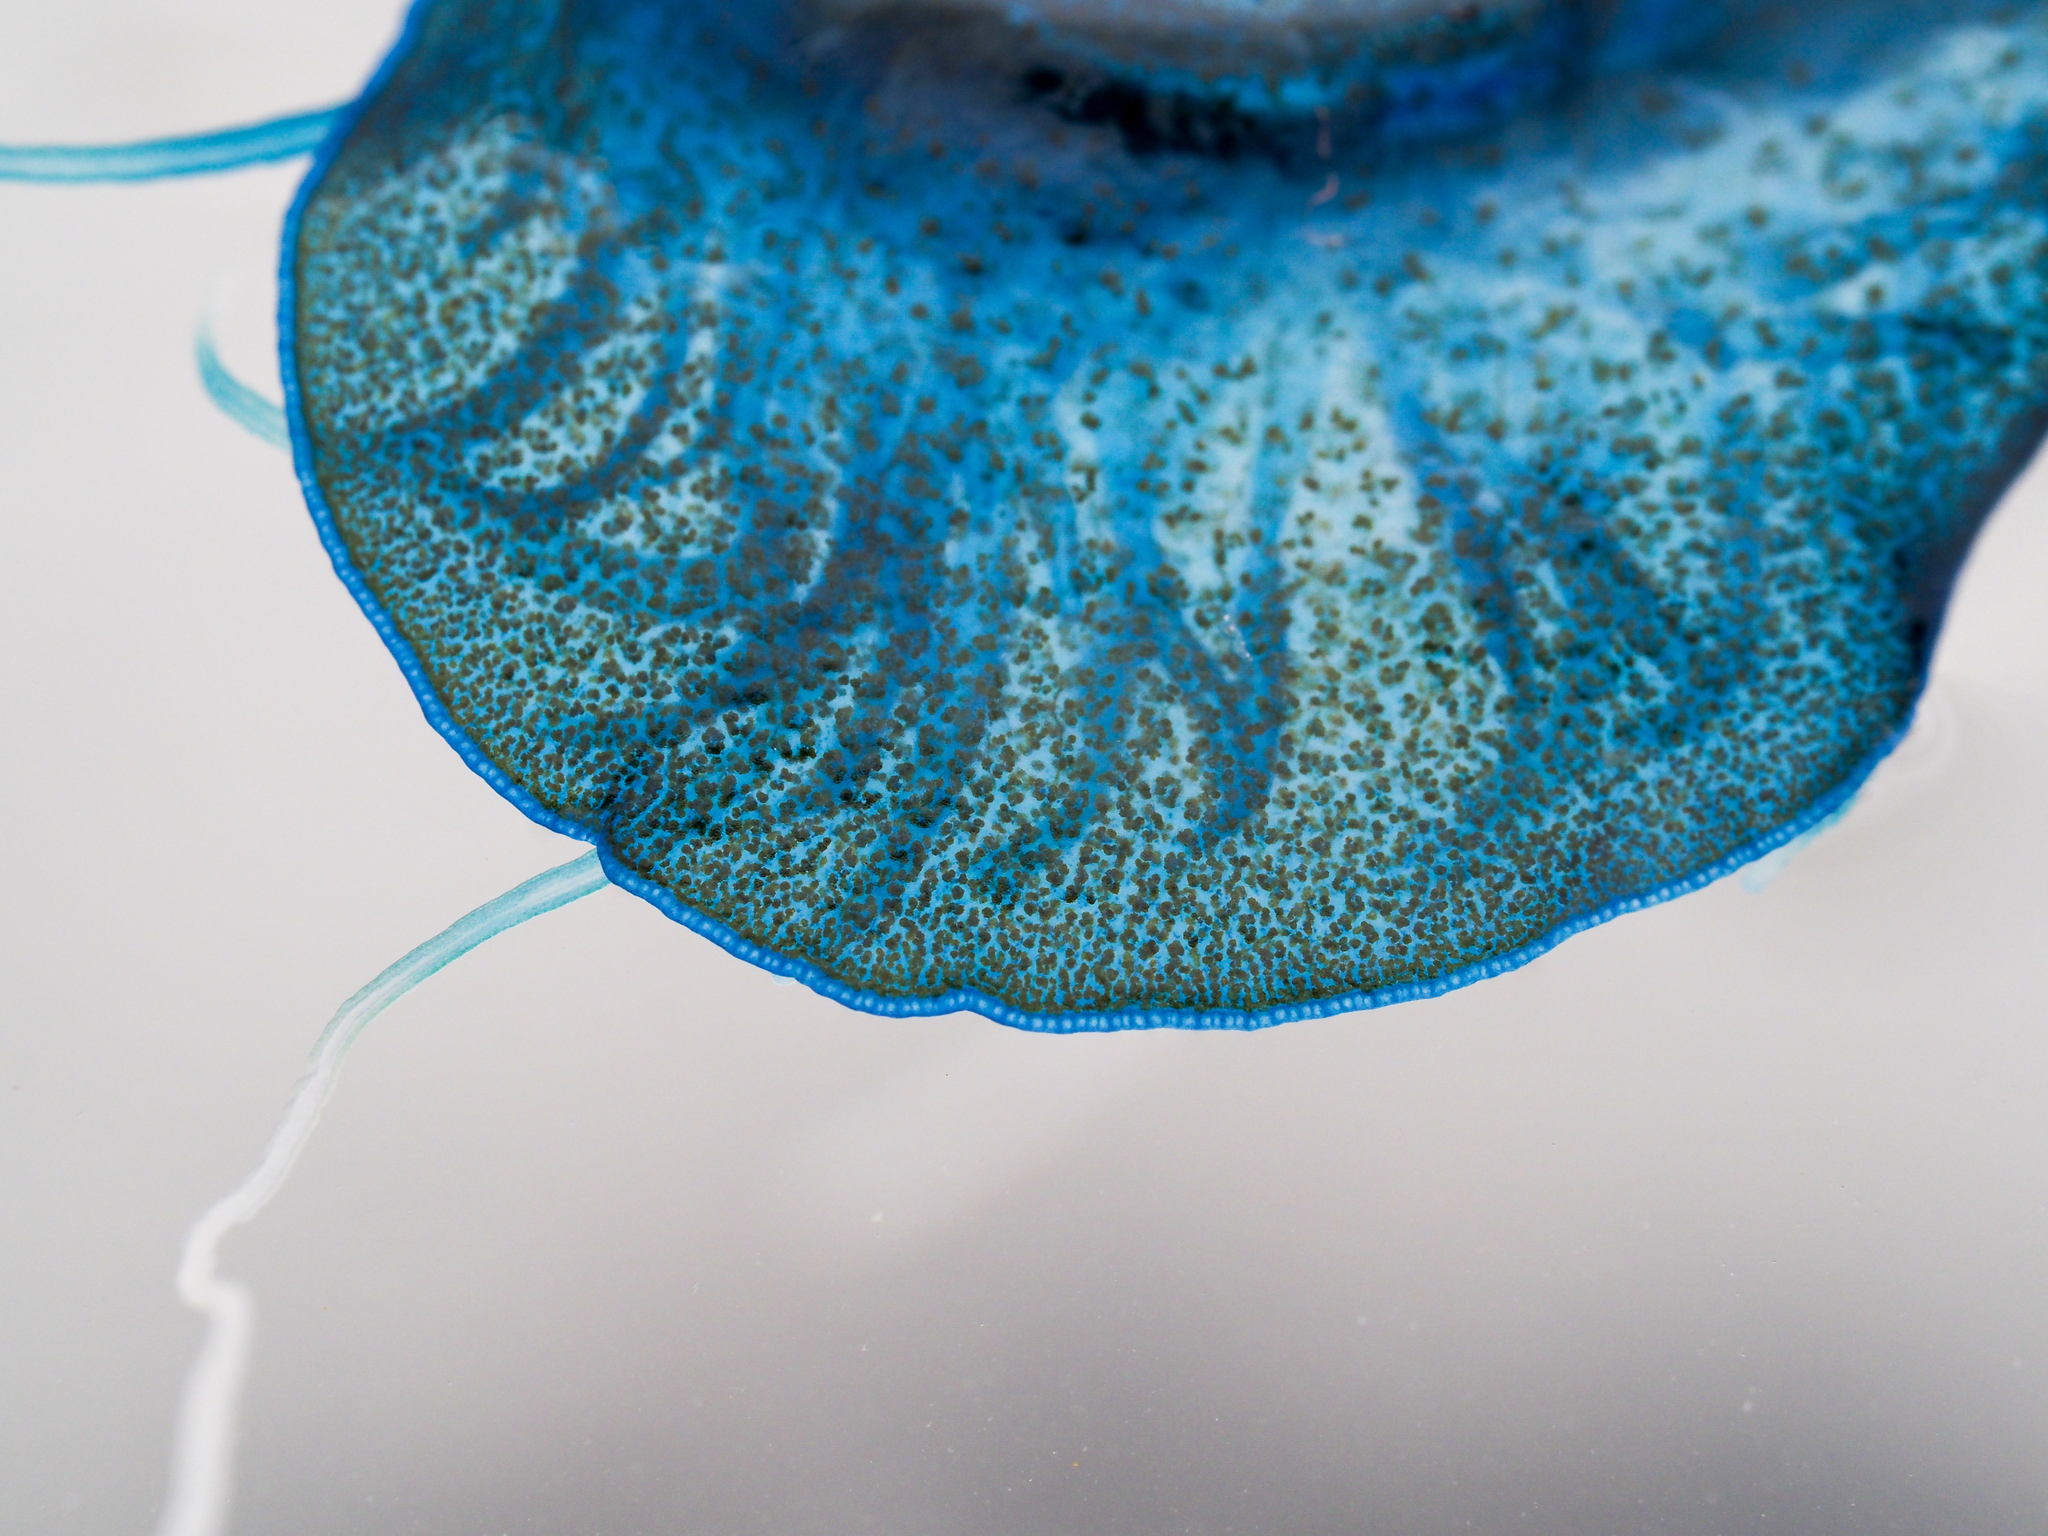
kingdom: Animalia
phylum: Cnidaria
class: Hydrozoa
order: Anthoathecata
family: Porpitidae
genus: Velella
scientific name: Velella velella
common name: By-the-wind-sailor
